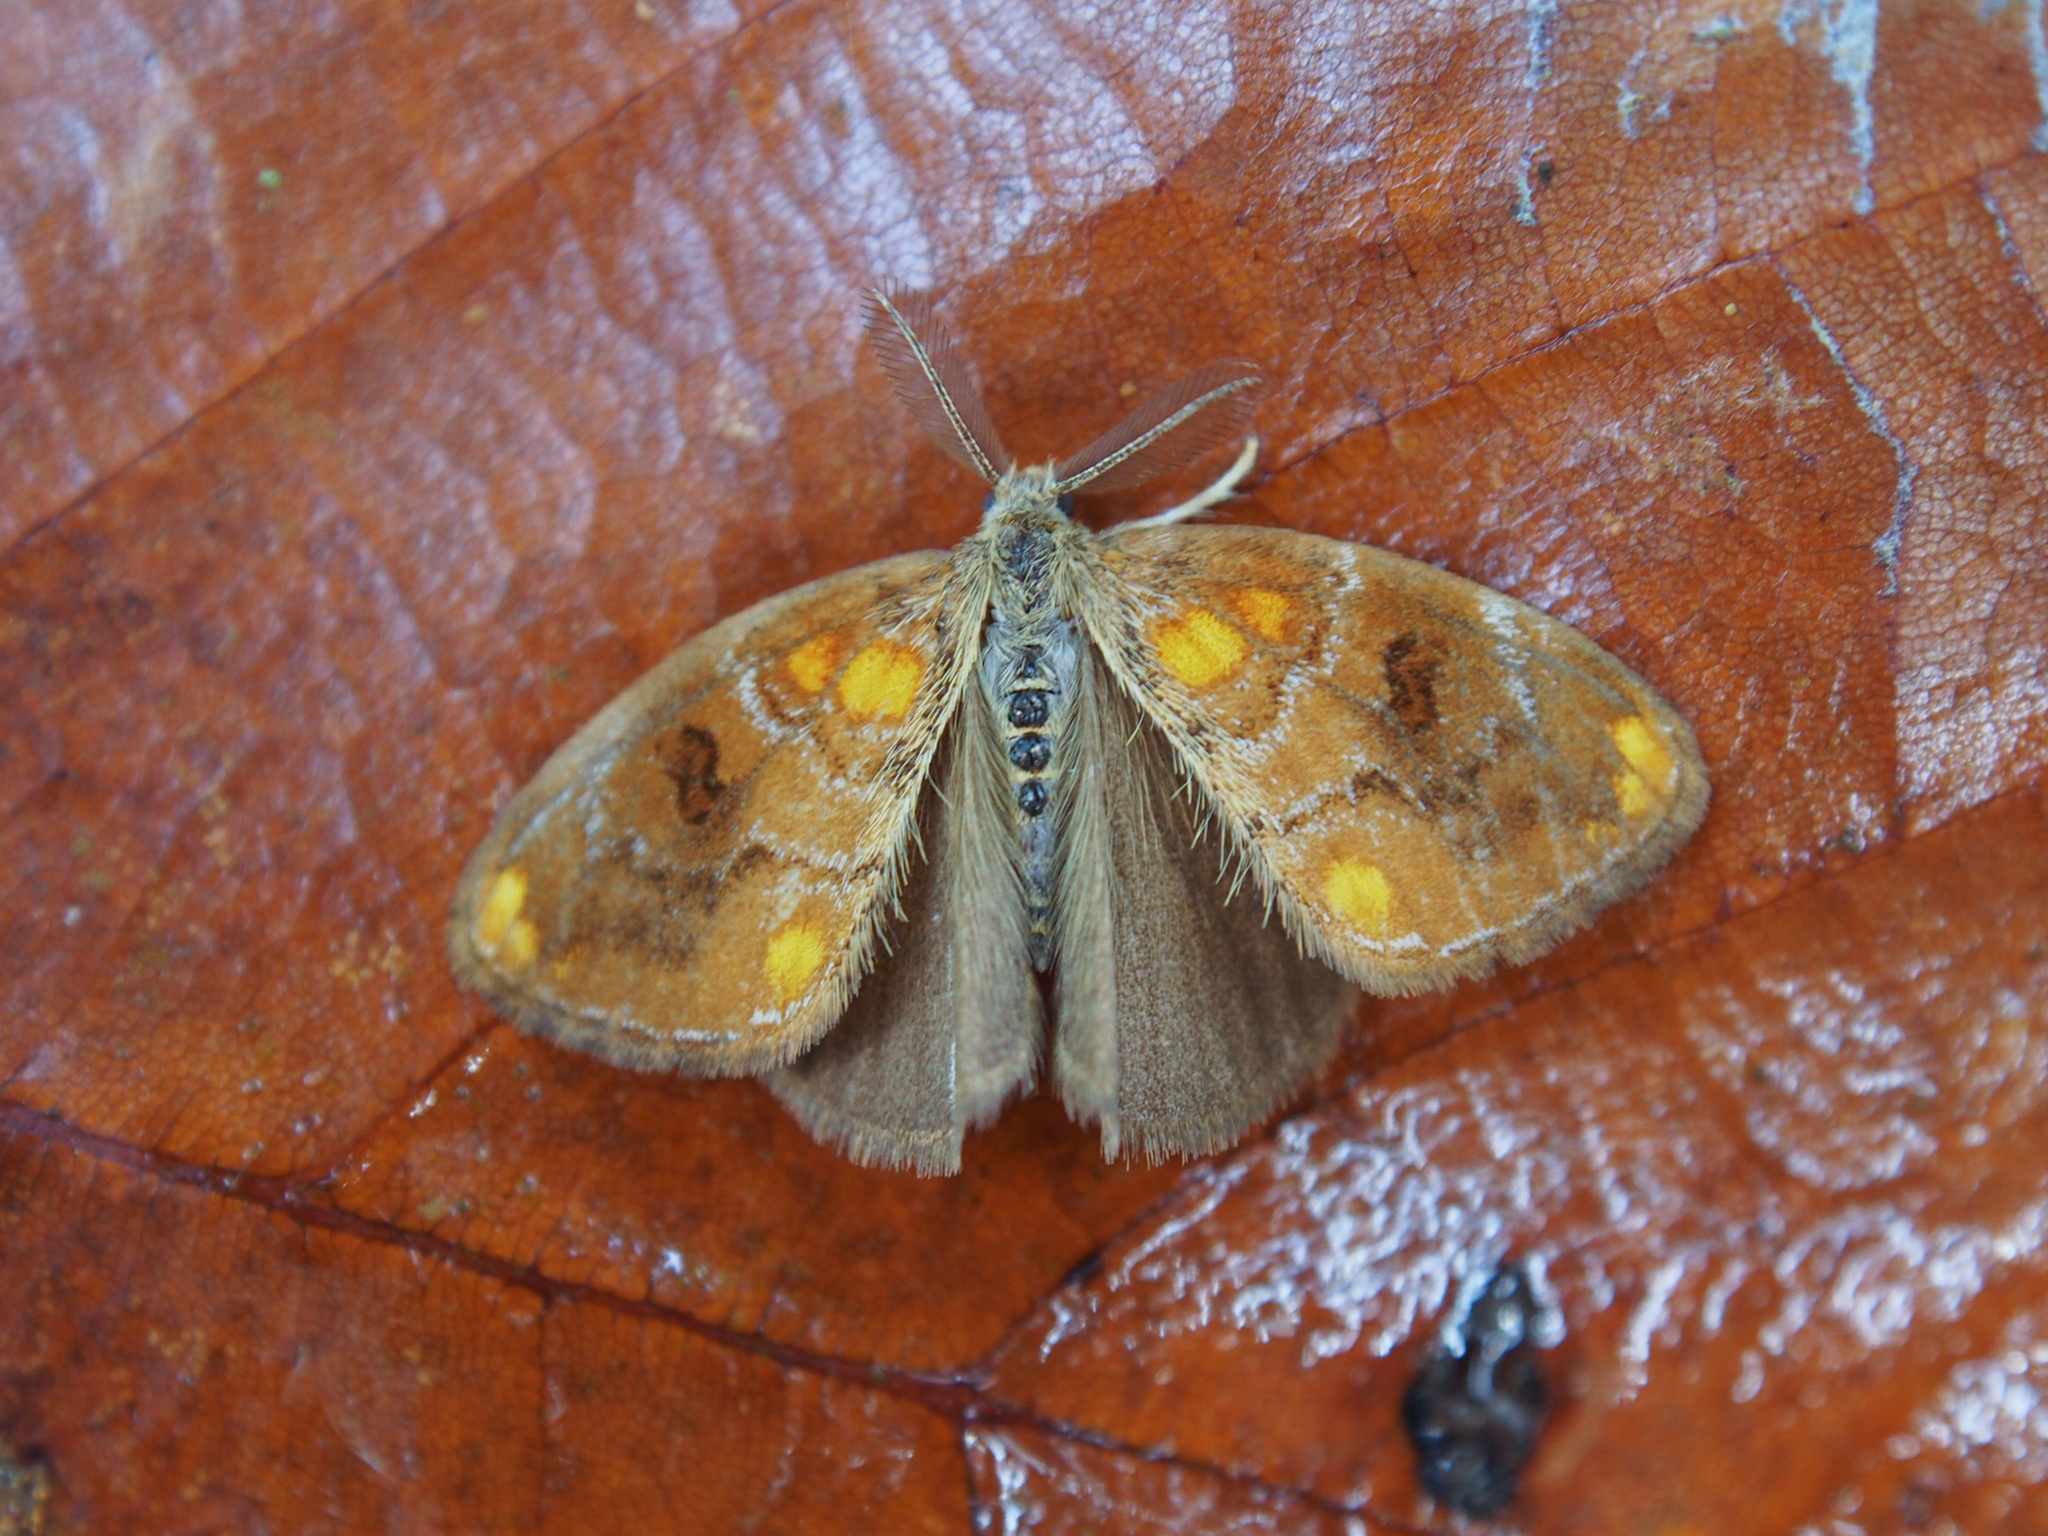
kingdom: Animalia
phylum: Arthropoda
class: Insecta
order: Lepidoptera
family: Erebidae
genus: Clethrogyna
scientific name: Clethrogyna turbata
